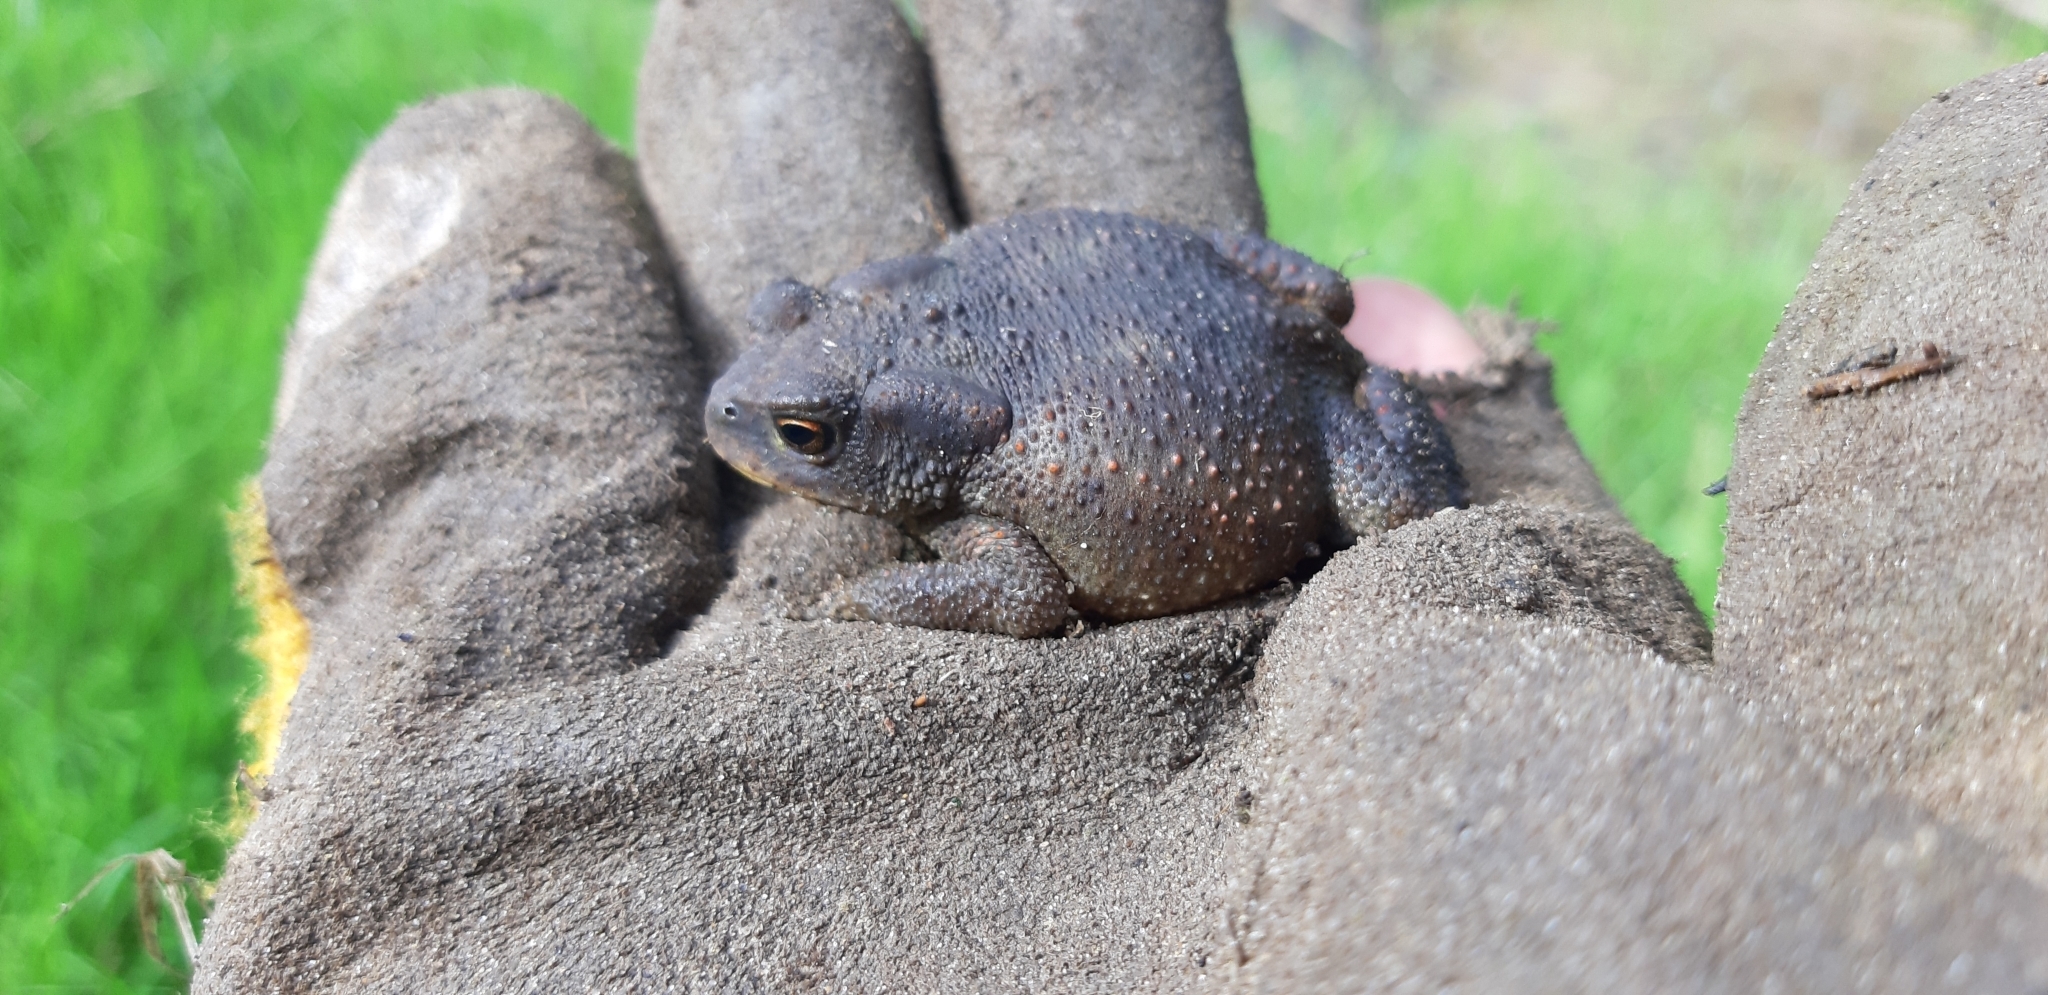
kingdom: Animalia
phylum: Chordata
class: Amphibia
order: Anura
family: Bufonidae
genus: Bufo
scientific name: Bufo bufo
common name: Common toad
